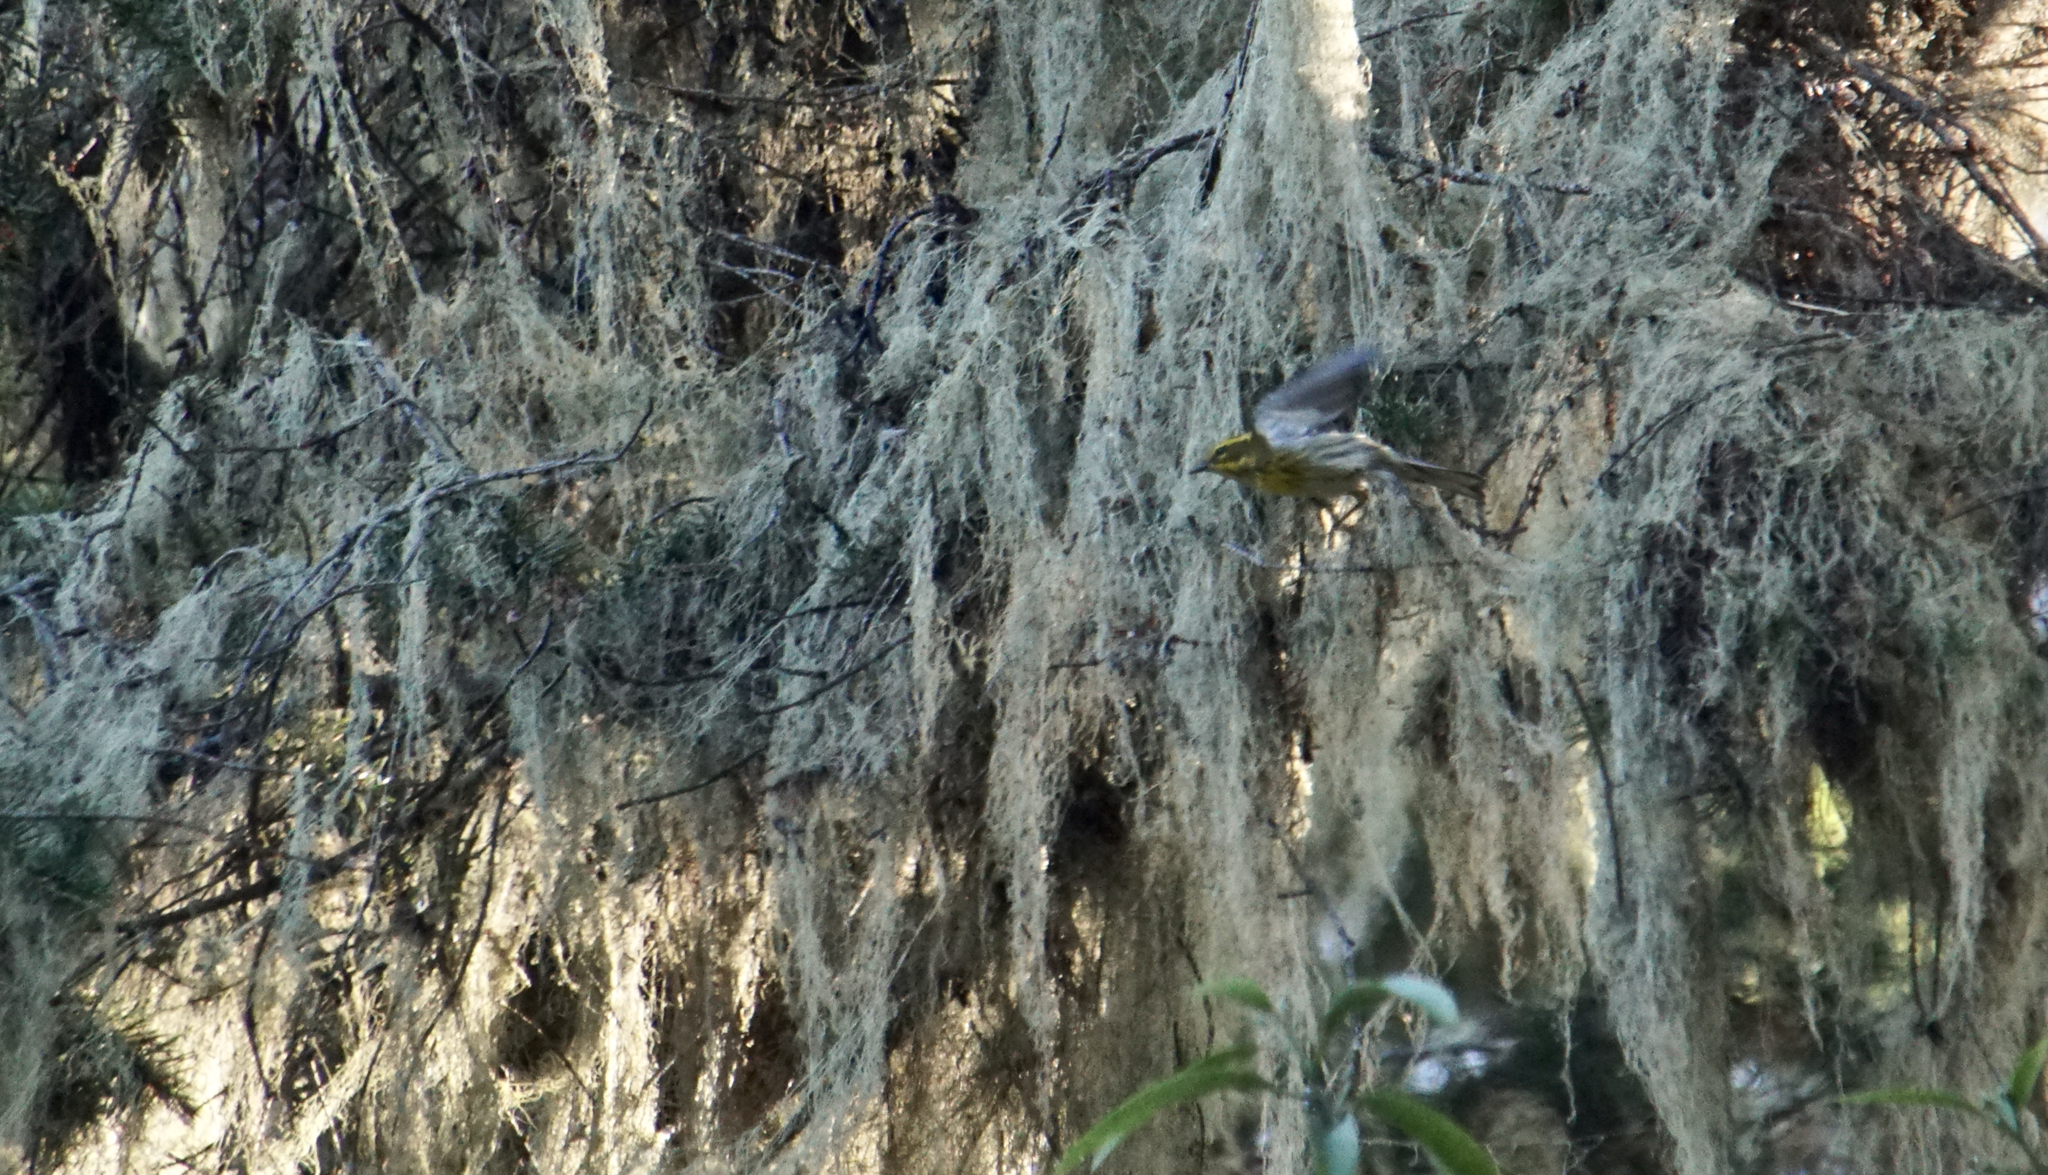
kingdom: Animalia
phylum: Chordata
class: Aves
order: Passeriformes
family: Parulidae
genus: Setophaga
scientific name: Setophaga townsendi
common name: Townsend's warbler
